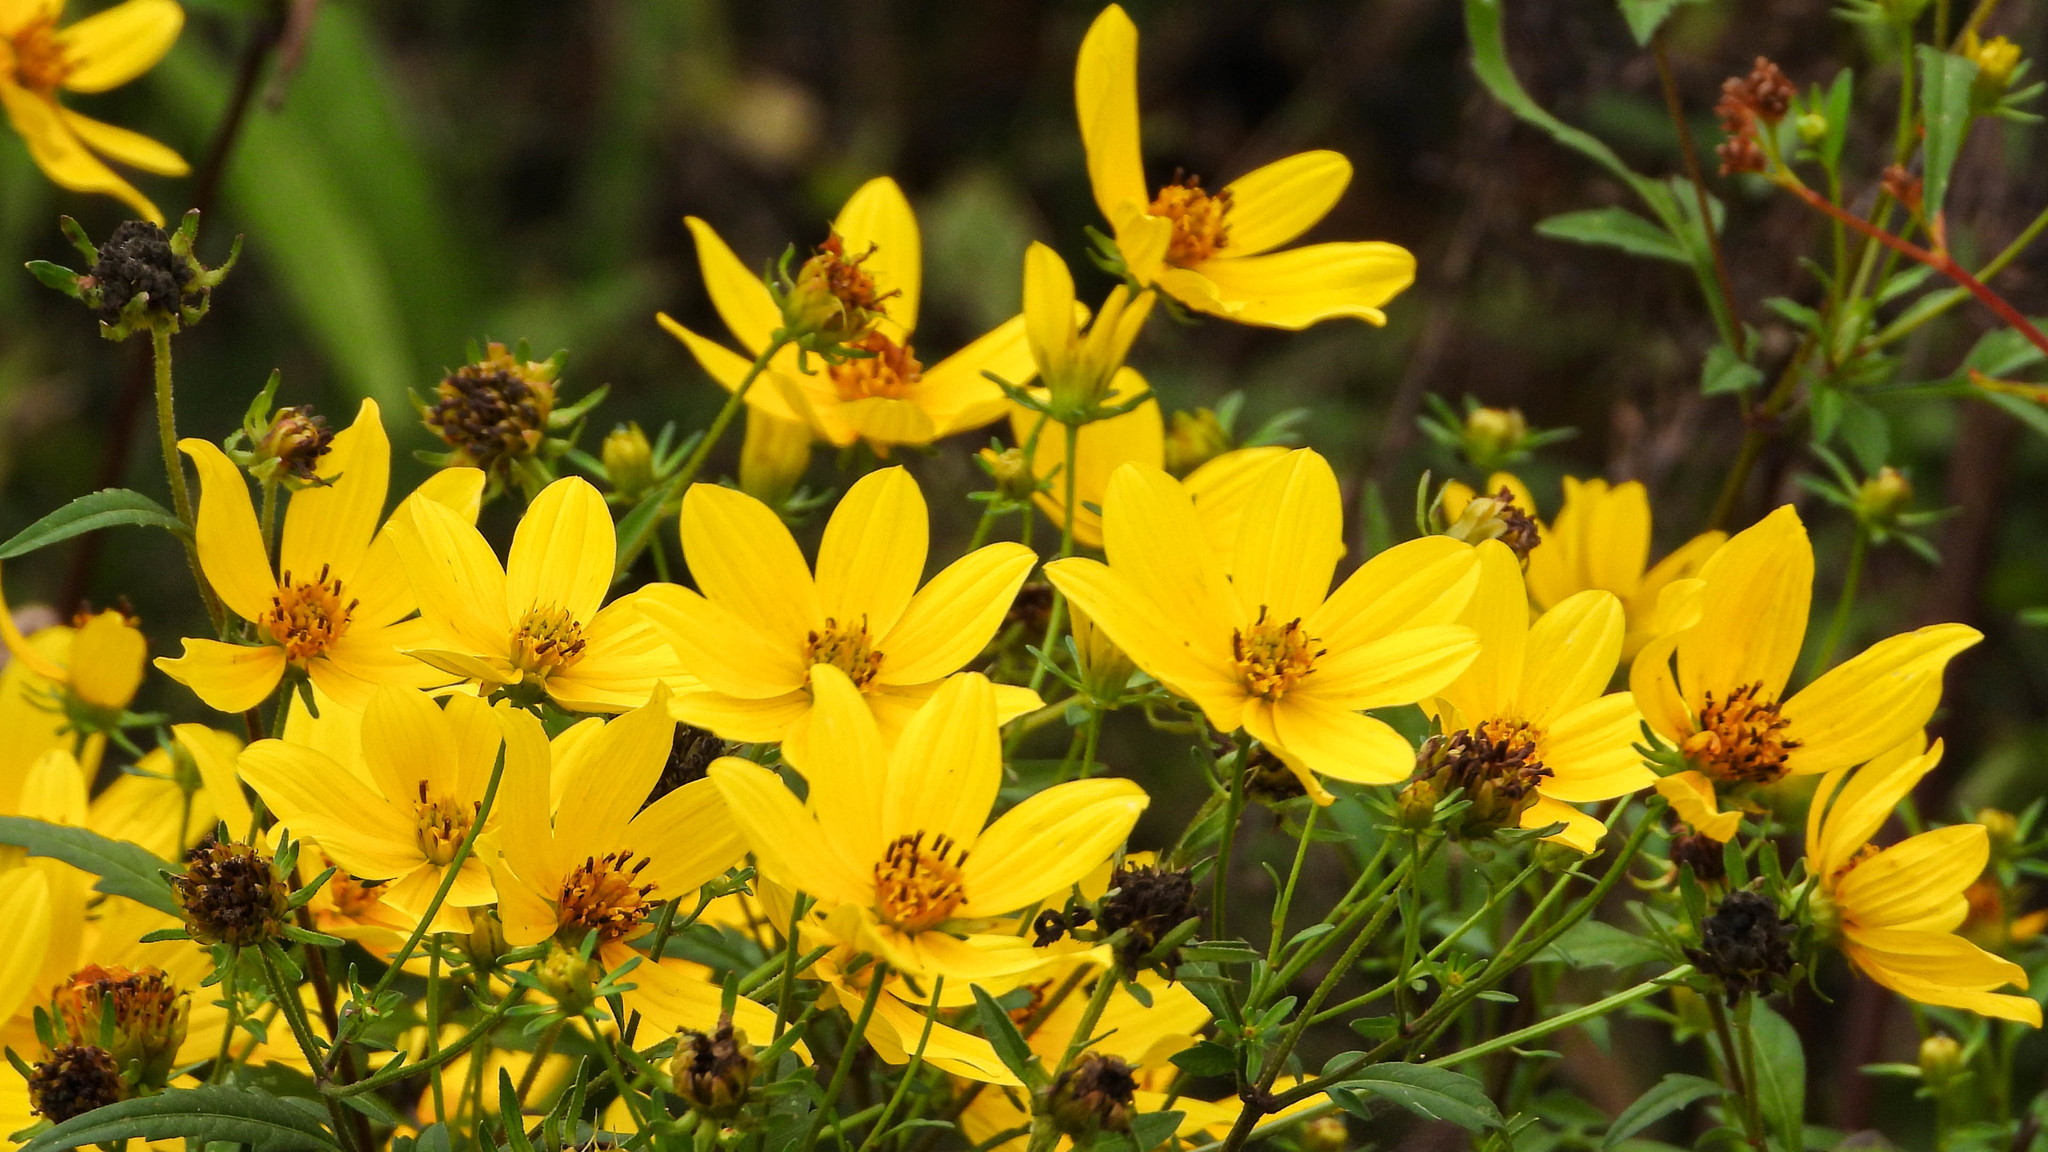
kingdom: Plantae
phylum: Tracheophyta
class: Magnoliopsida
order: Asterales
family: Asteraceae
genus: Bidens
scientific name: Bidens aristosa
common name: Western tickseed
